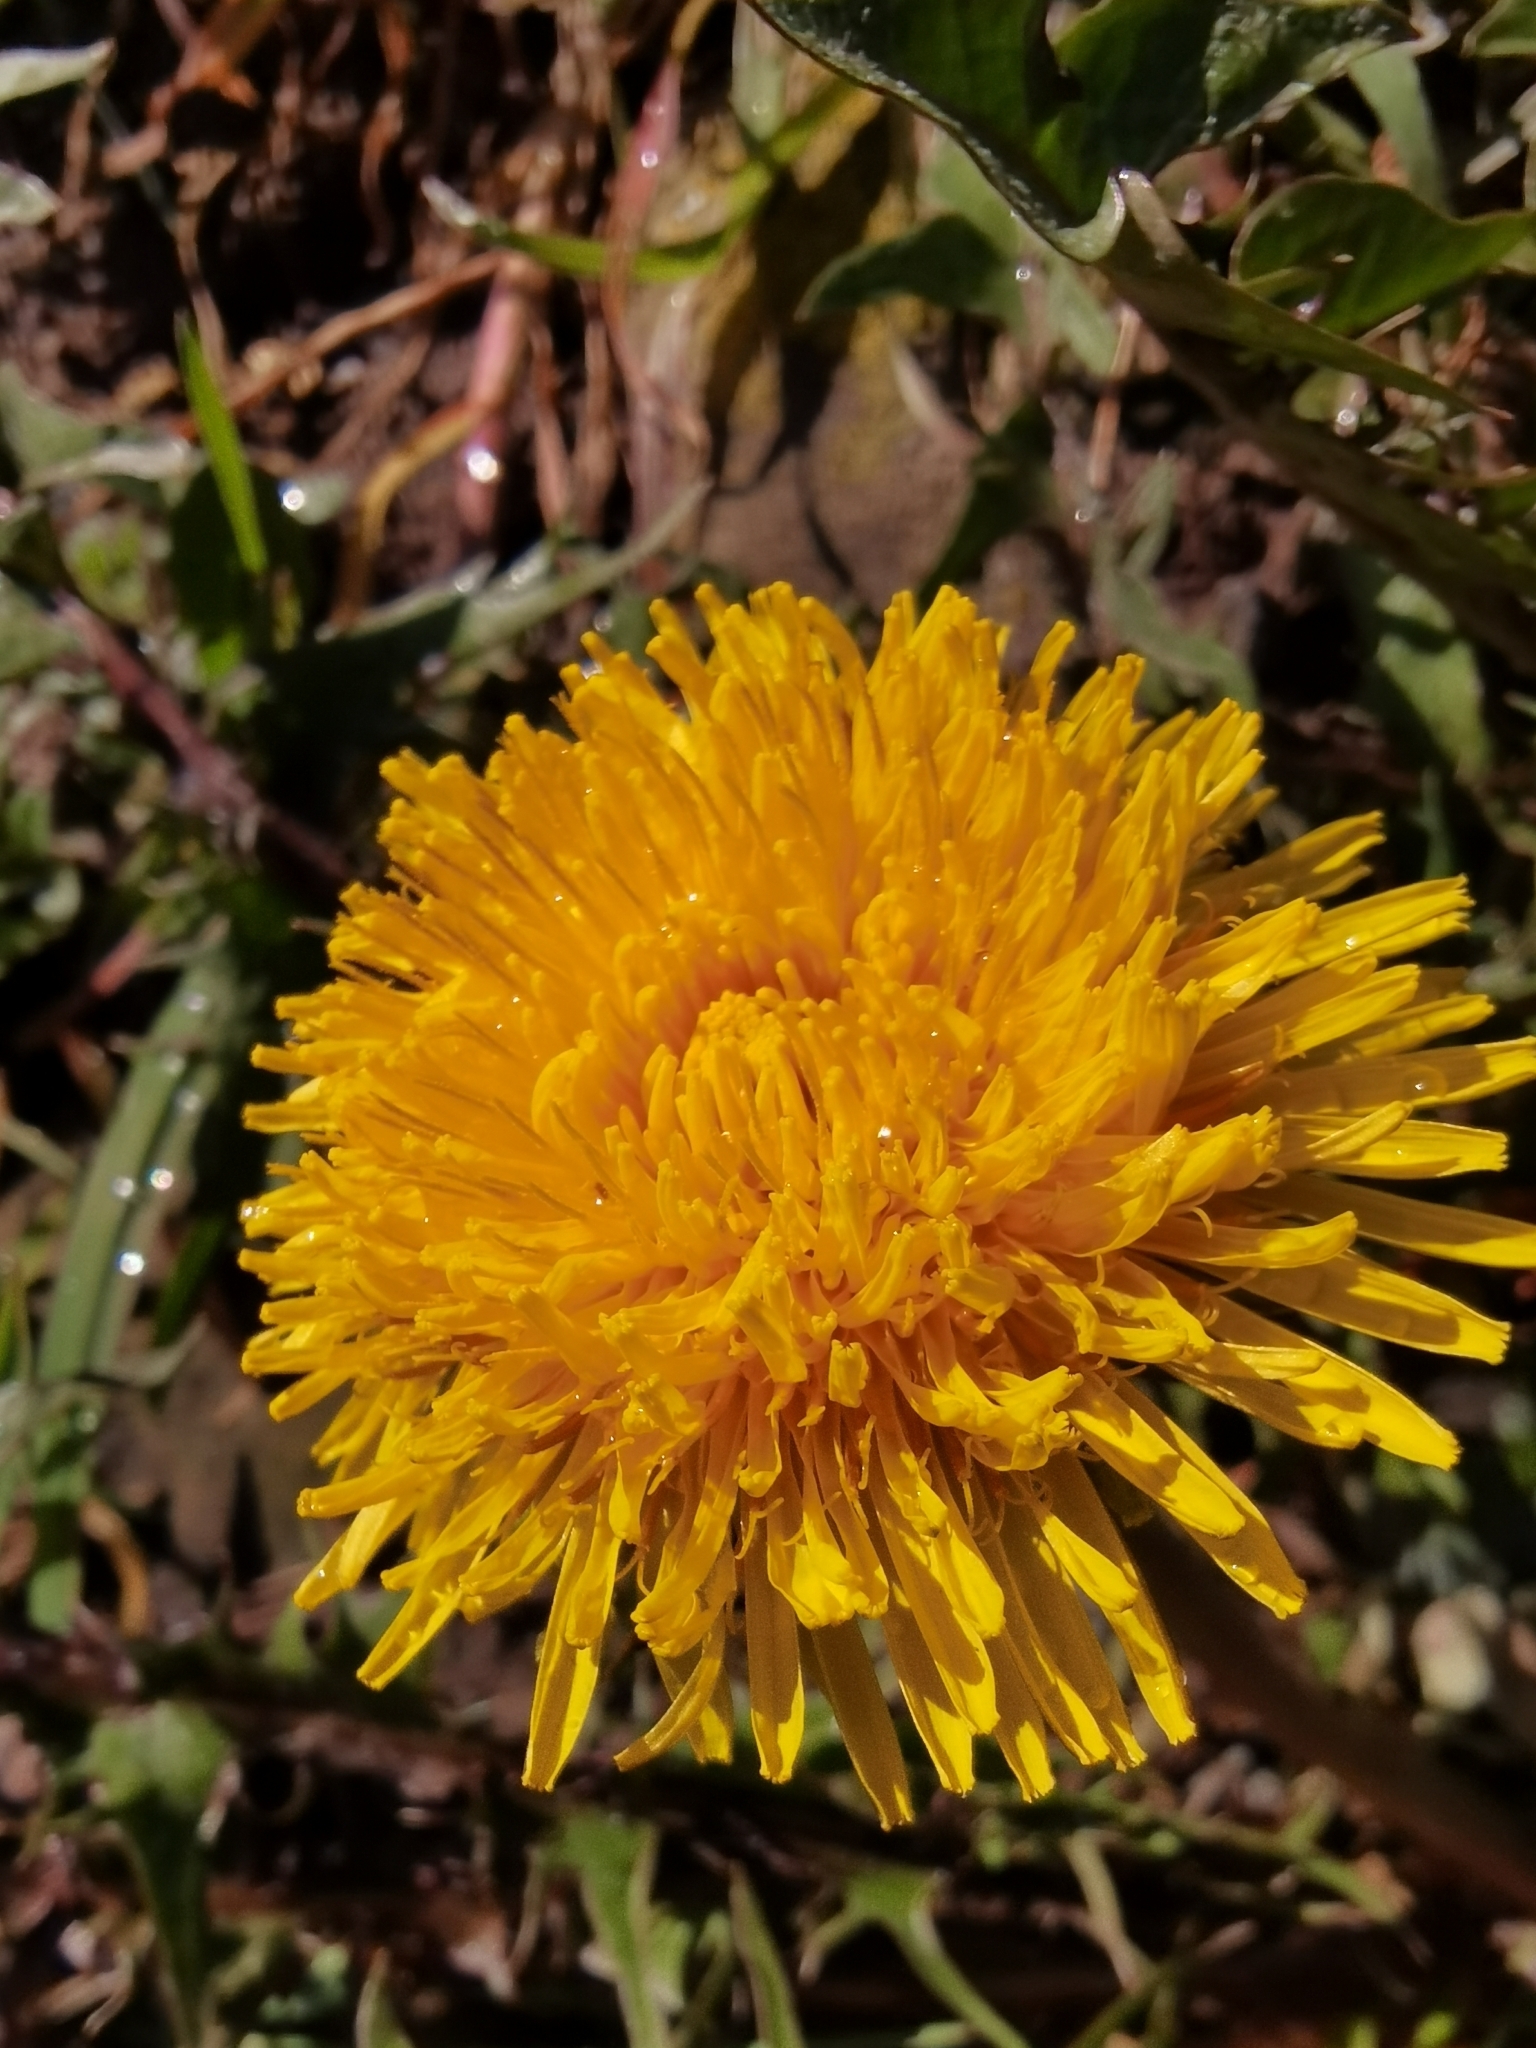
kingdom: Plantae
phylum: Tracheophyta
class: Magnoliopsida
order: Asterales
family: Asteraceae
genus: Taraxacum
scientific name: Taraxacum officinale
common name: Common dandelion
